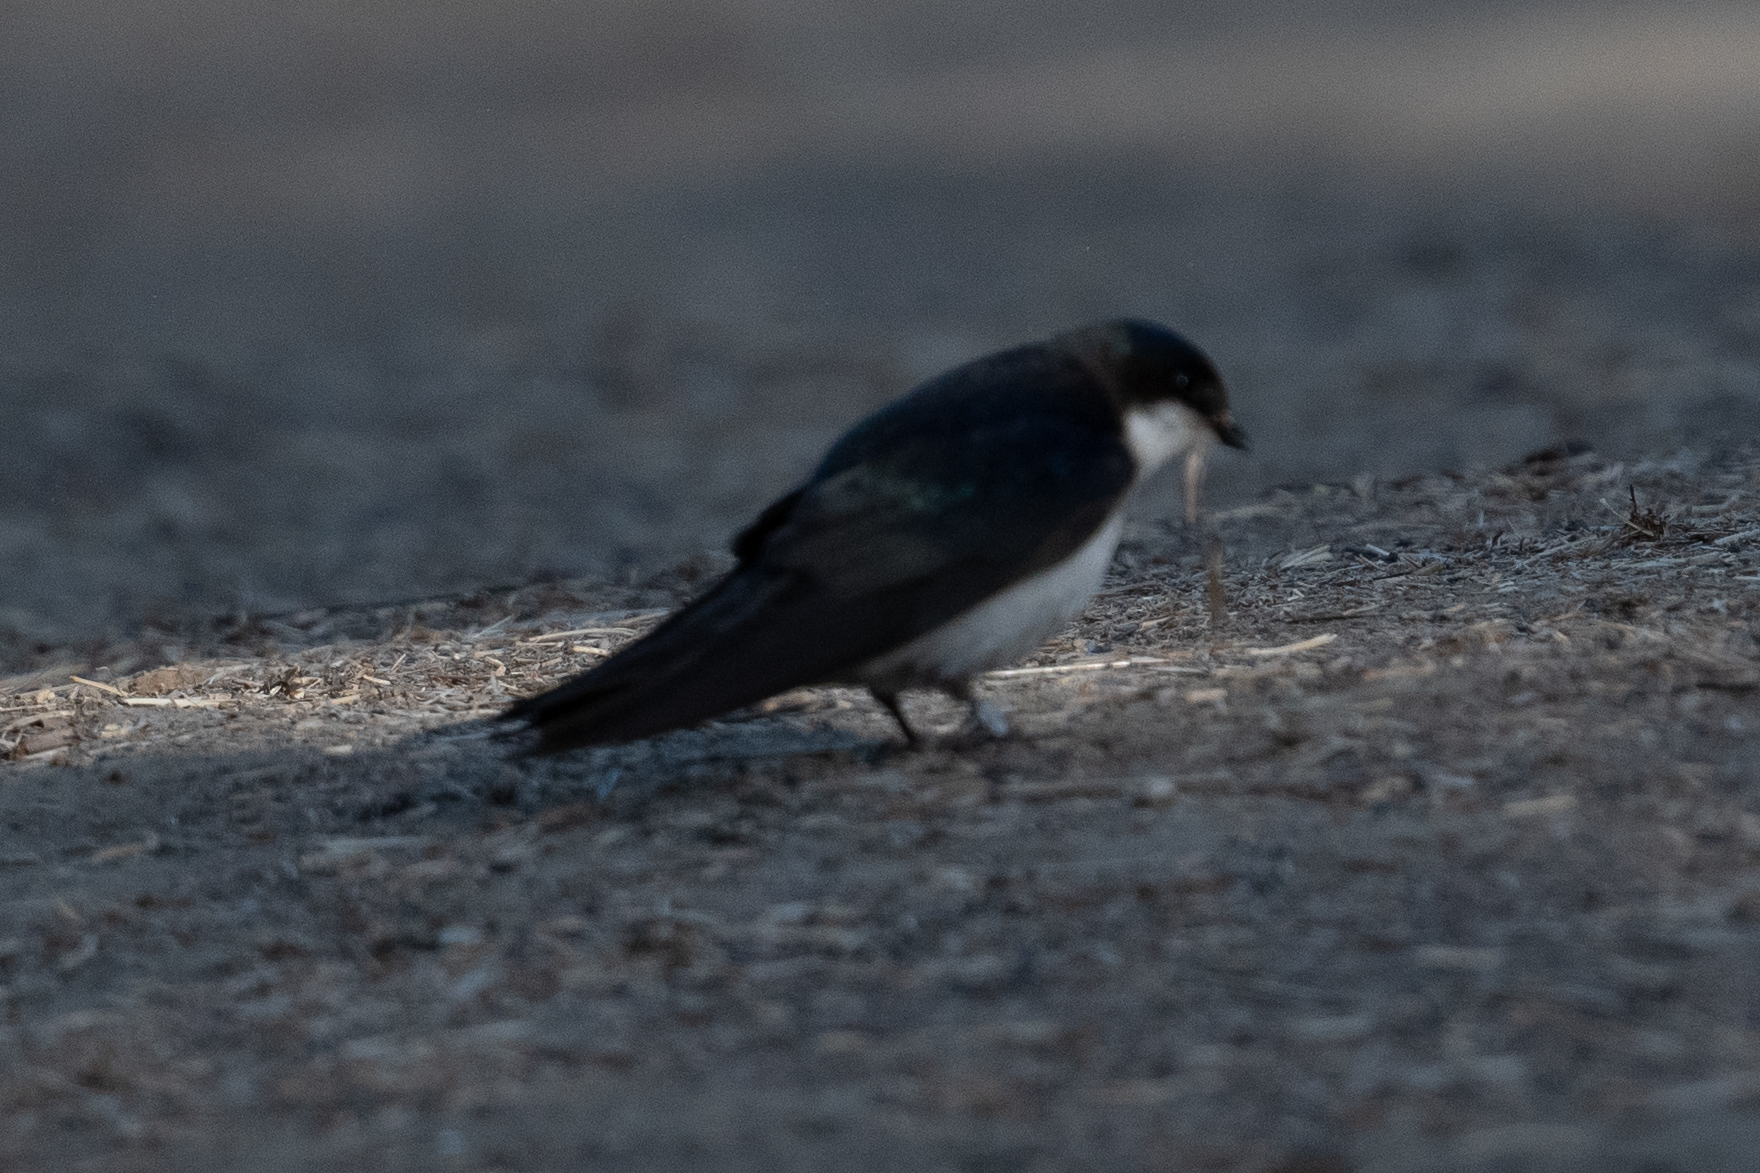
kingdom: Animalia
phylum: Chordata
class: Aves
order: Passeriformes
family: Hirundinidae
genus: Tachycineta
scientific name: Tachycineta bicolor
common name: Tree swallow
